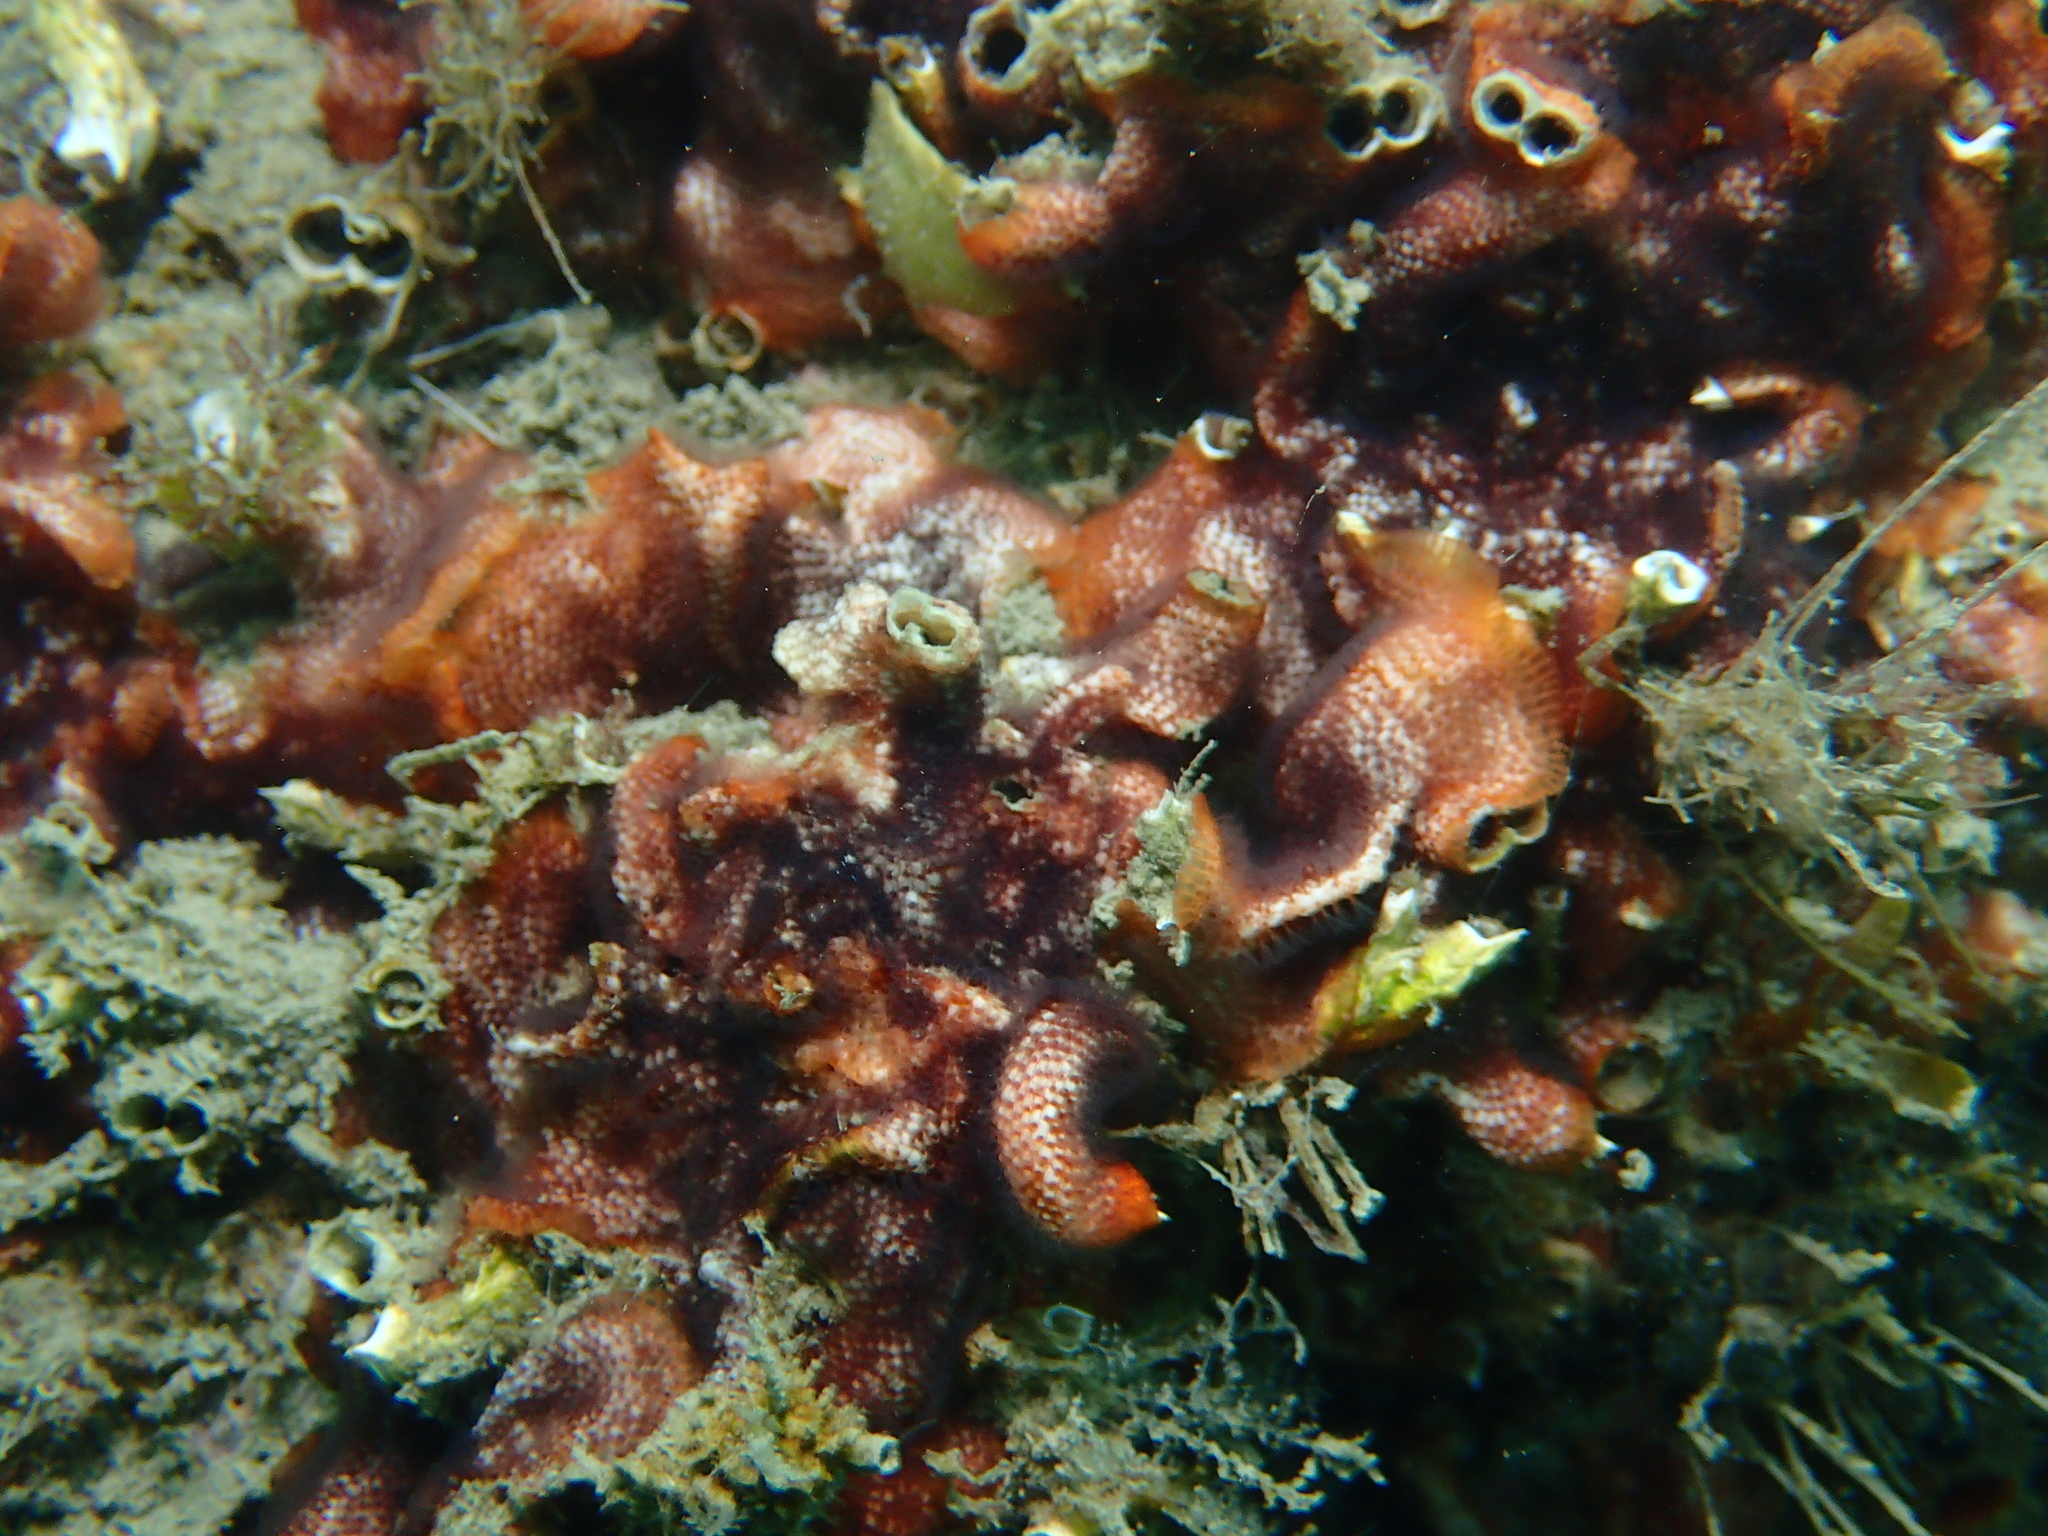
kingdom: Animalia
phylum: Bryozoa
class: Gymnolaemata
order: Cheilostomatida
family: Schizoporellidae
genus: Schizobrachiella
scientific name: Schizobrachiella sanguinea
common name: Blood-red encrusting bryozoan
